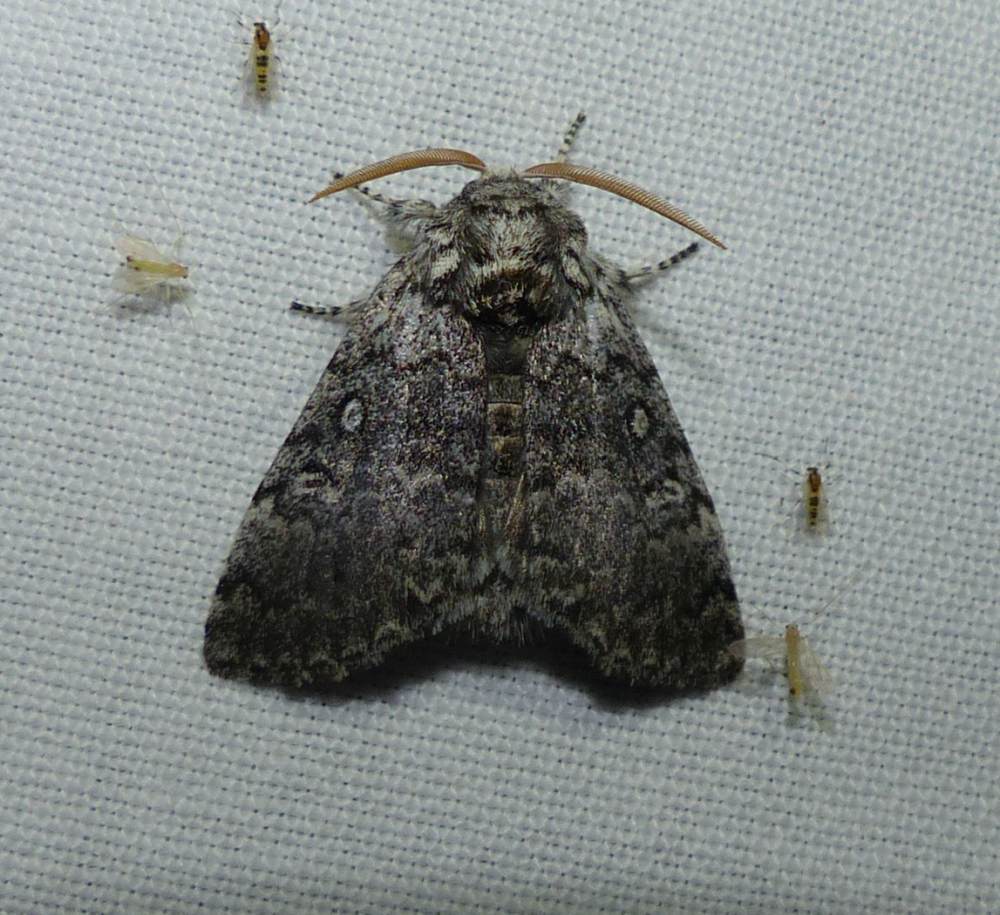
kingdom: Animalia
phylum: Arthropoda
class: Insecta
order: Lepidoptera
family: Noctuidae
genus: Colocasia
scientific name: Colocasia propinquilinea
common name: Close-banded demas
